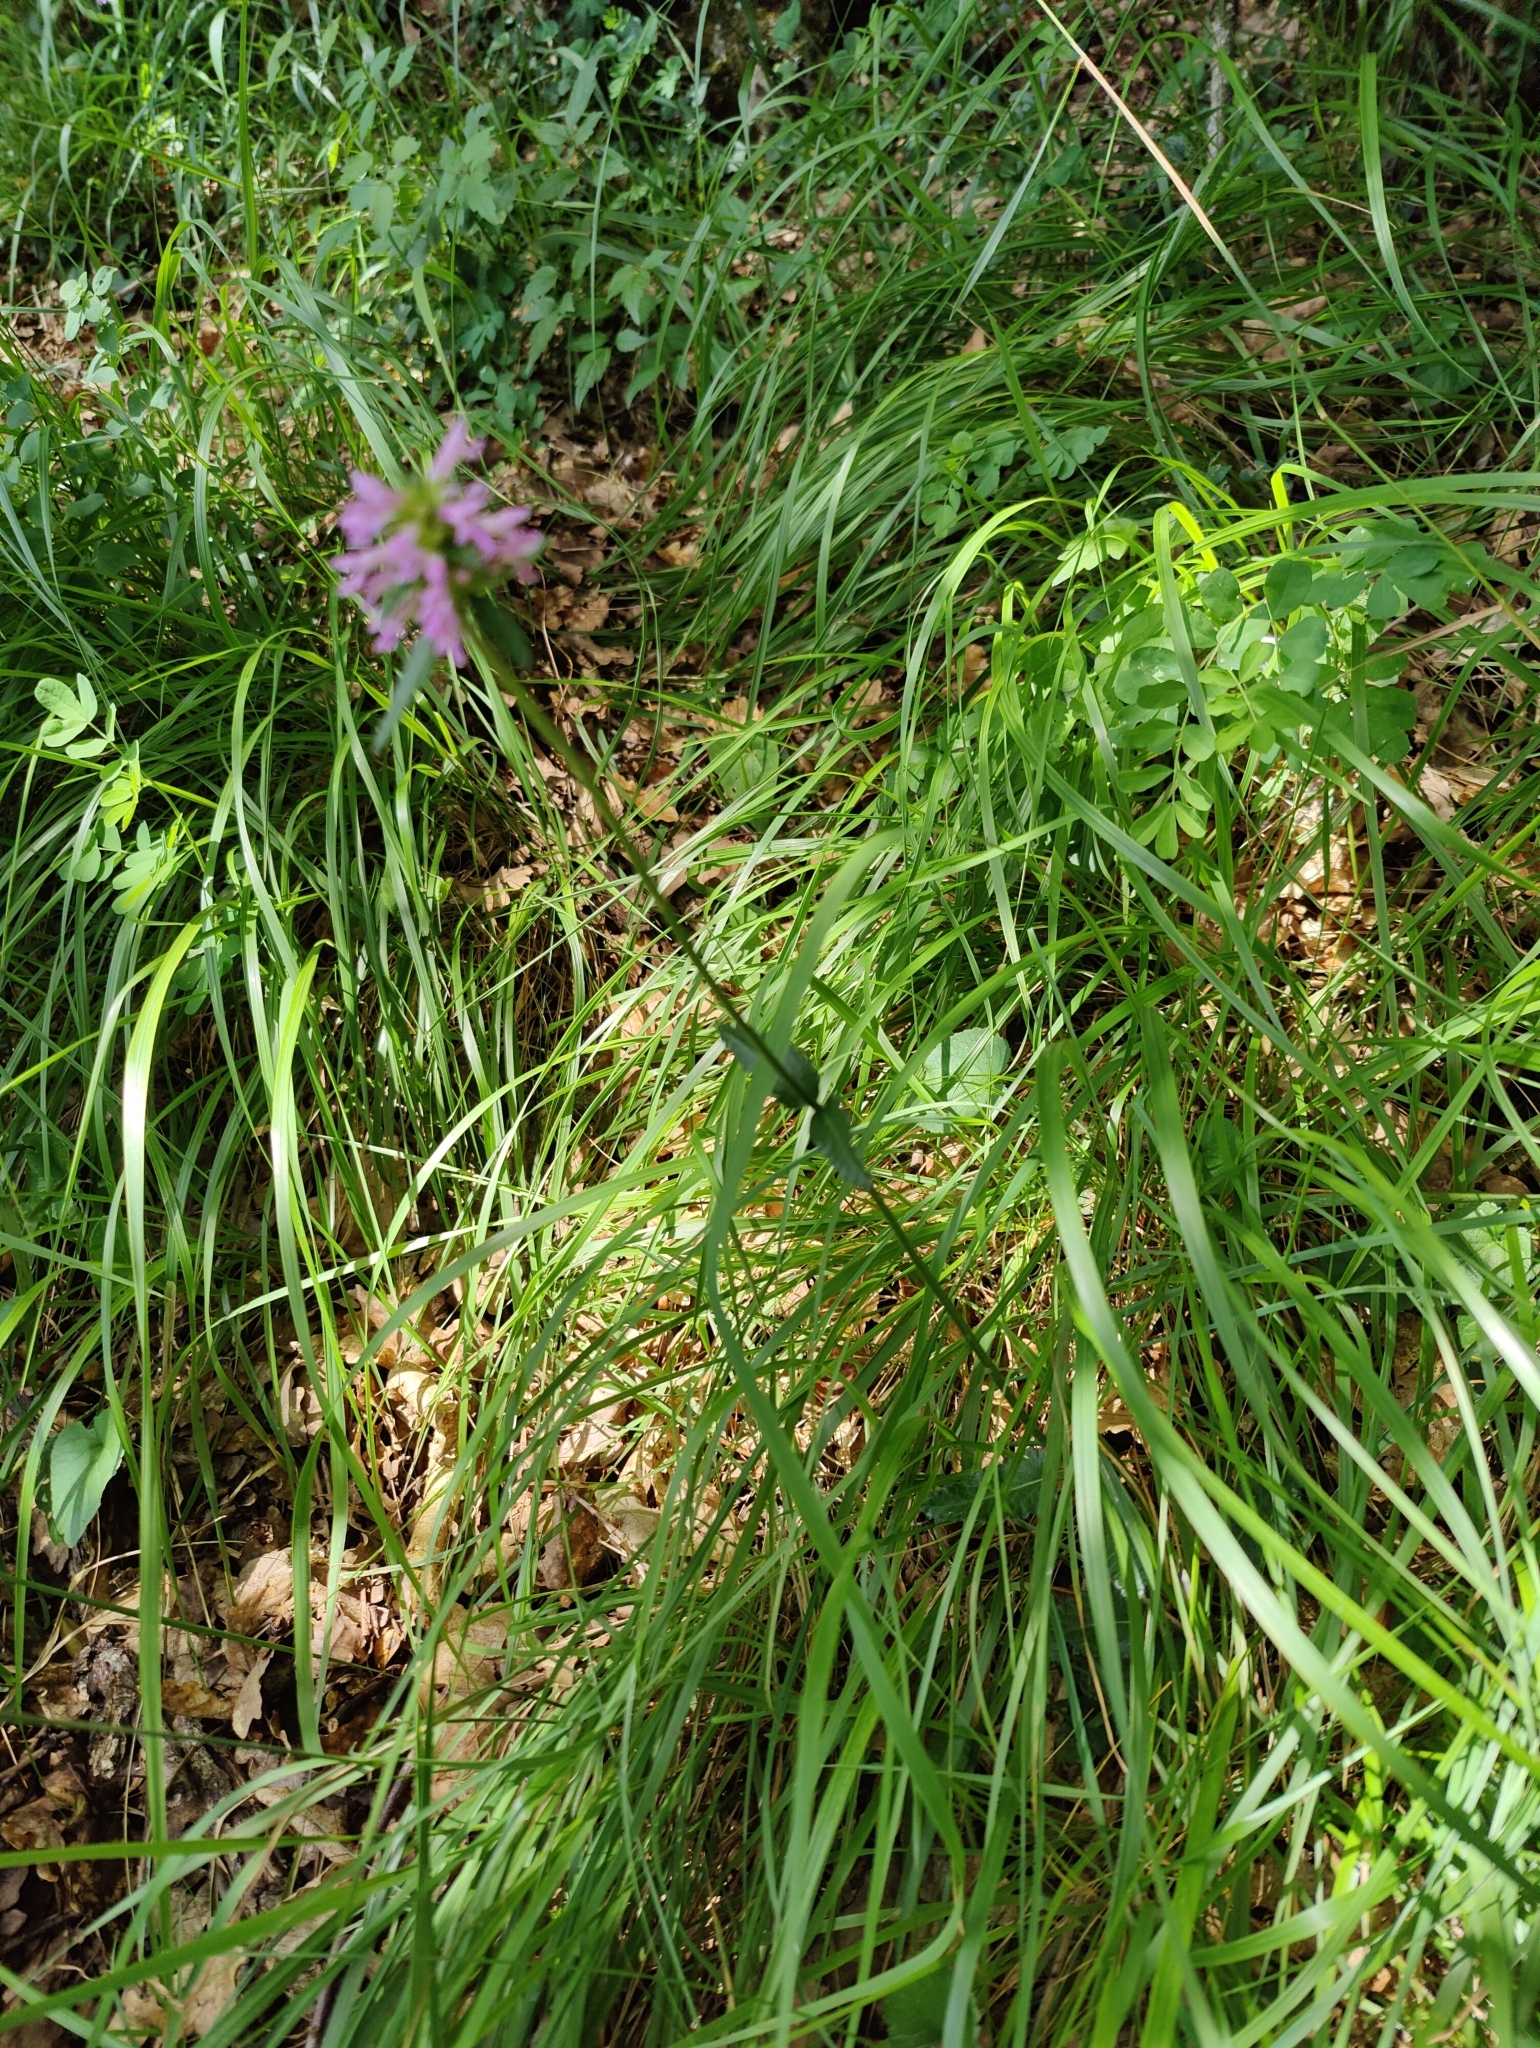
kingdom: Plantae
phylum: Tracheophyta
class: Magnoliopsida
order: Lamiales
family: Lamiaceae
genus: Betonica
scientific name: Betonica officinalis
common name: Bishop's-wort
